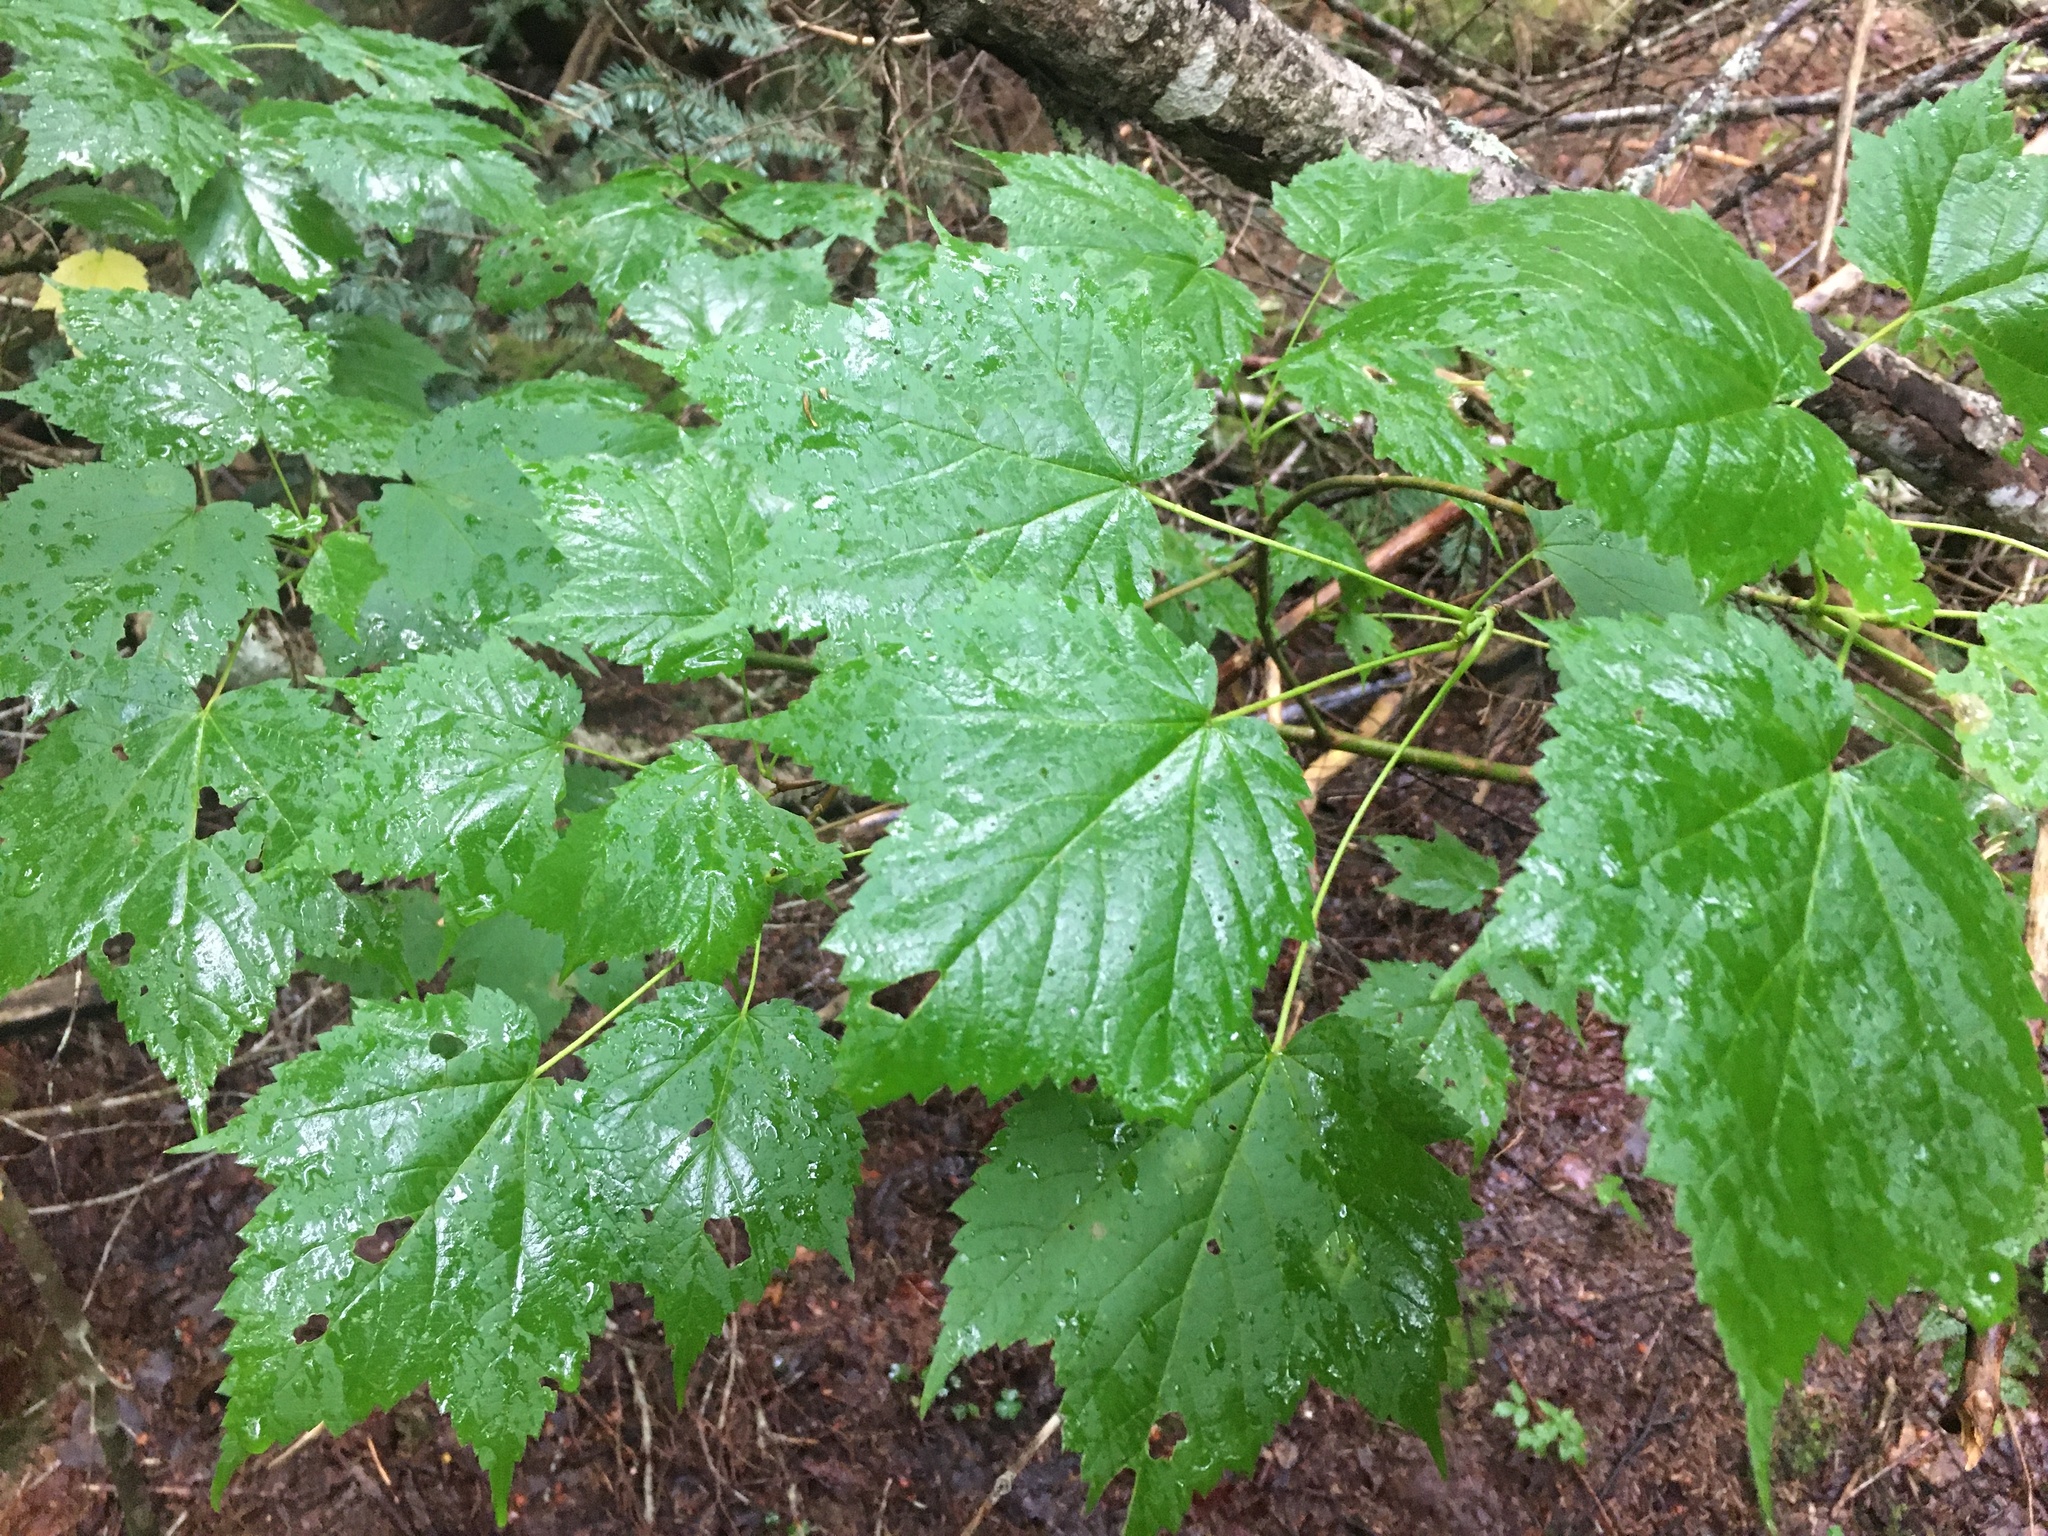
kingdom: Plantae
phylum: Tracheophyta
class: Magnoliopsida
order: Sapindales
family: Sapindaceae
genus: Acer
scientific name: Acer spicatum
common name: Mountain maple
